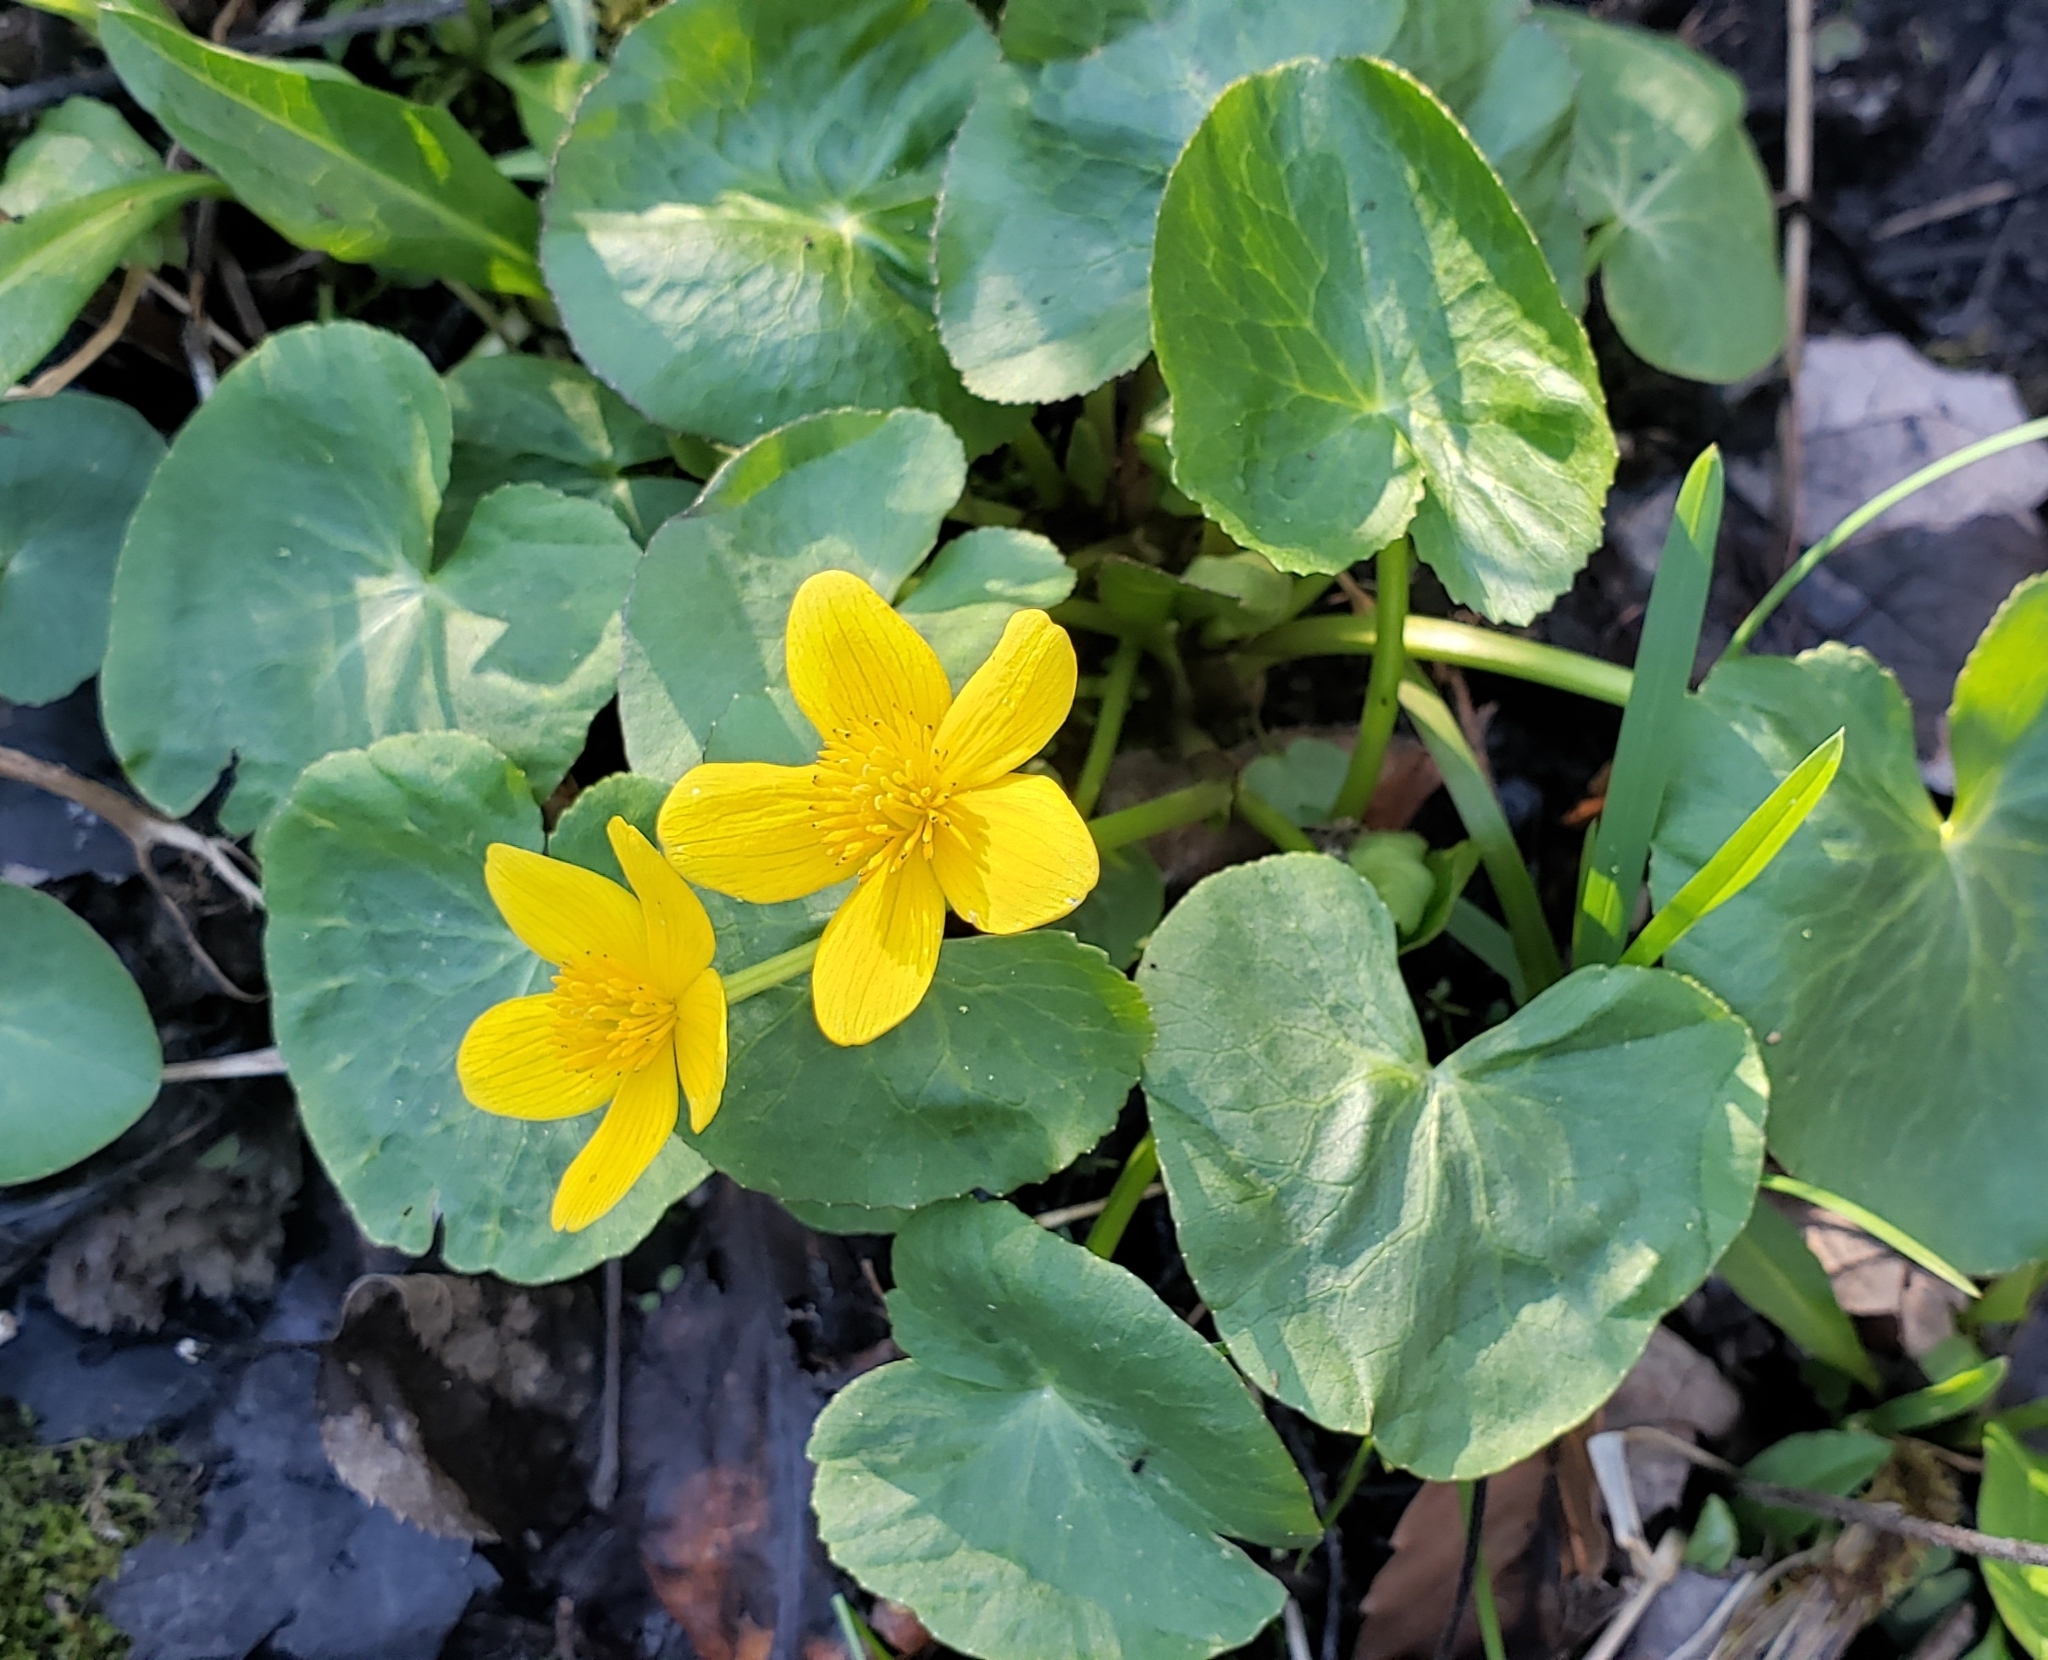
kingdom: Plantae
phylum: Tracheophyta
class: Magnoliopsida
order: Ranunculales
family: Ranunculaceae
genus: Caltha
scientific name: Caltha palustris
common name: Marsh marigold
